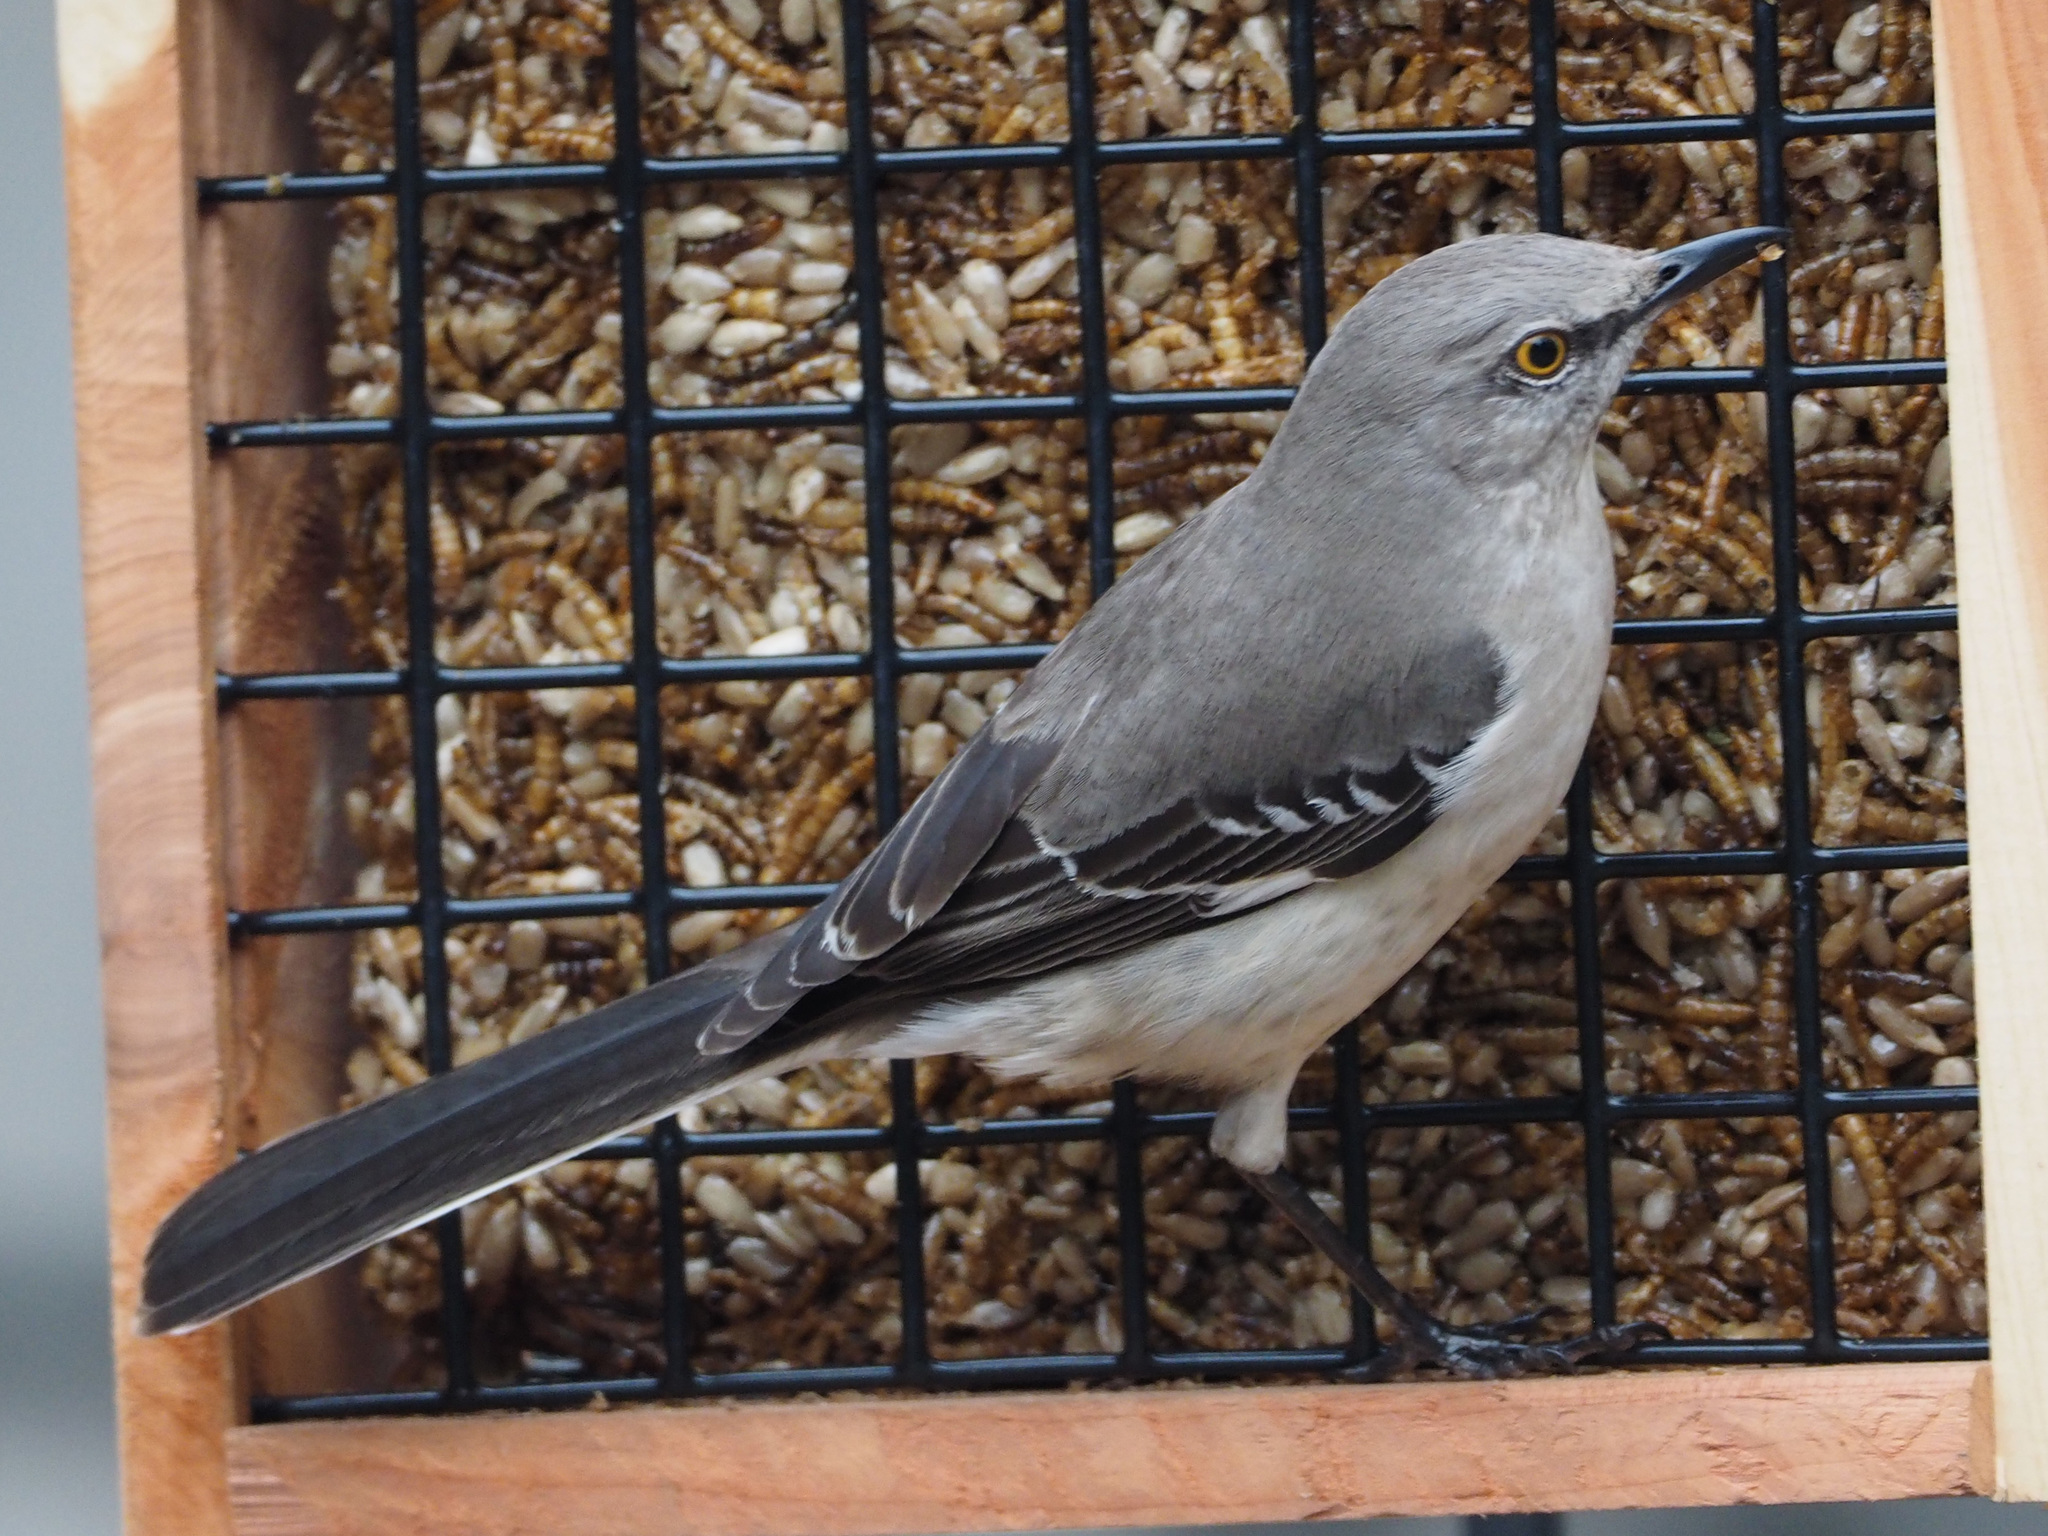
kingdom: Animalia
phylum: Chordata
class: Aves
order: Passeriformes
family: Mimidae
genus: Mimus
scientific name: Mimus polyglottos
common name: Northern mockingbird
